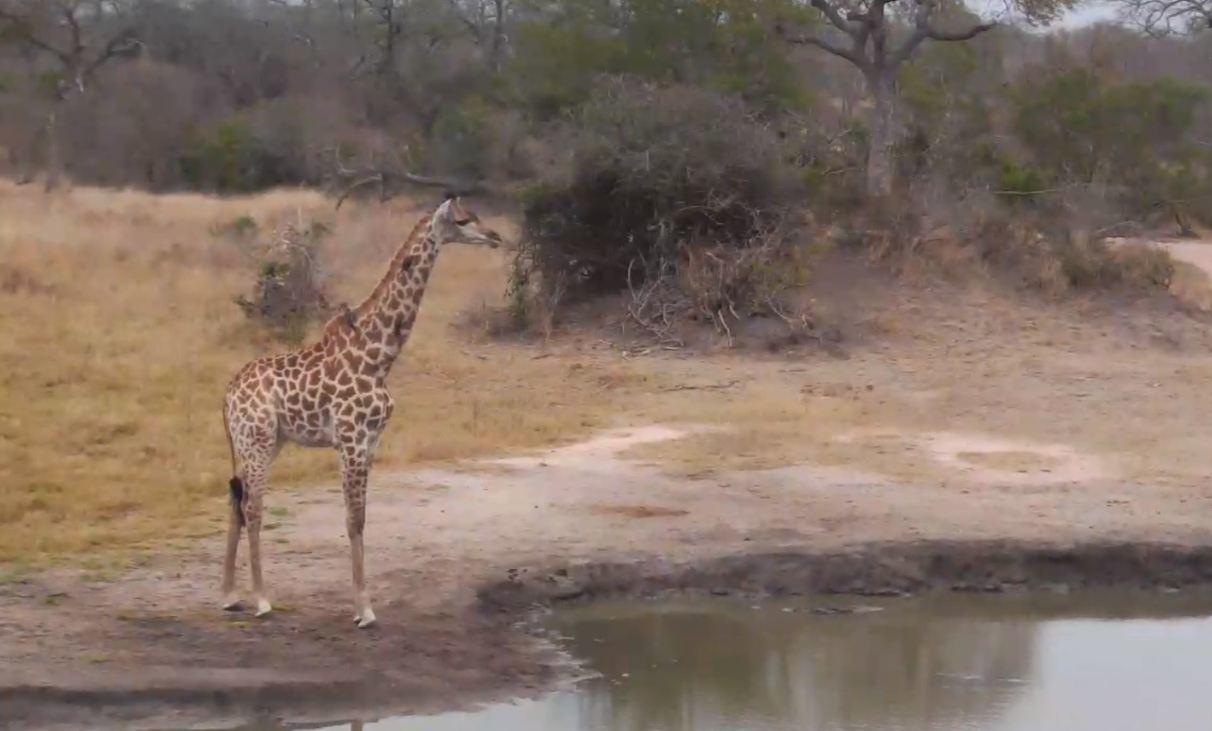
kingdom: Animalia
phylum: Chordata
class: Mammalia
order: Artiodactyla
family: Giraffidae
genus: Giraffa
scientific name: Giraffa giraffa
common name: Southern giraffe
